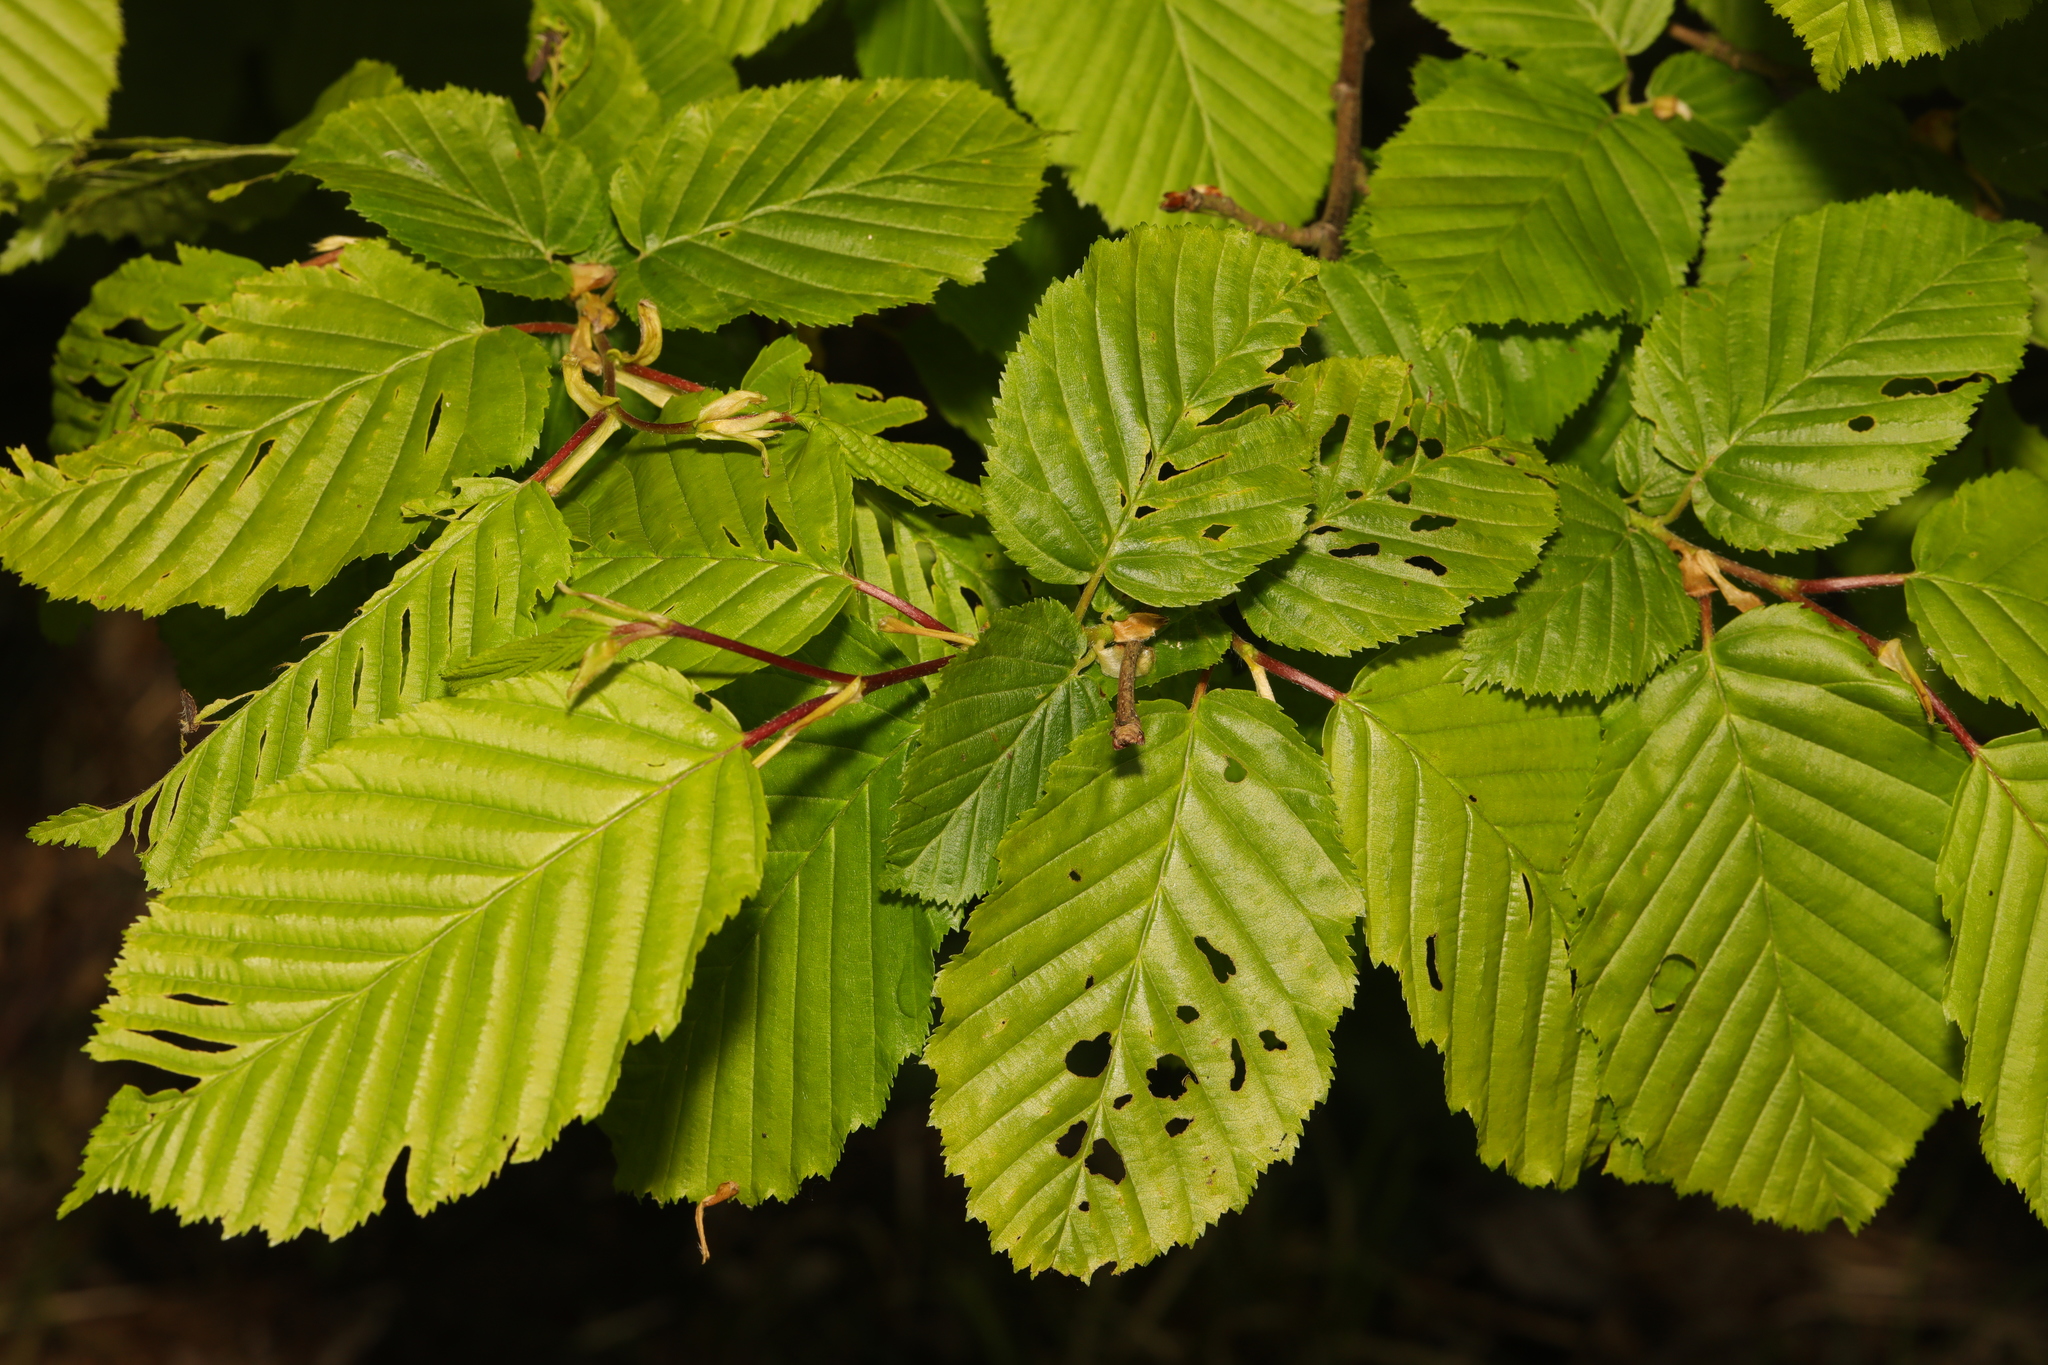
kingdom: Plantae
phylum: Tracheophyta
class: Magnoliopsida
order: Fagales
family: Betulaceae
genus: Carpinus
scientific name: Carpinus betulus
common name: Hornbeam
